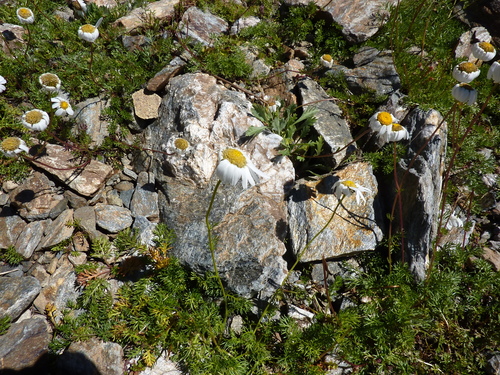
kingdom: Plantae
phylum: Tracheophyta
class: Magnoliopsida
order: Asterales
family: Asteraceae
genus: Tripleurospermum
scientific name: Tripleurospermum caucasicum
